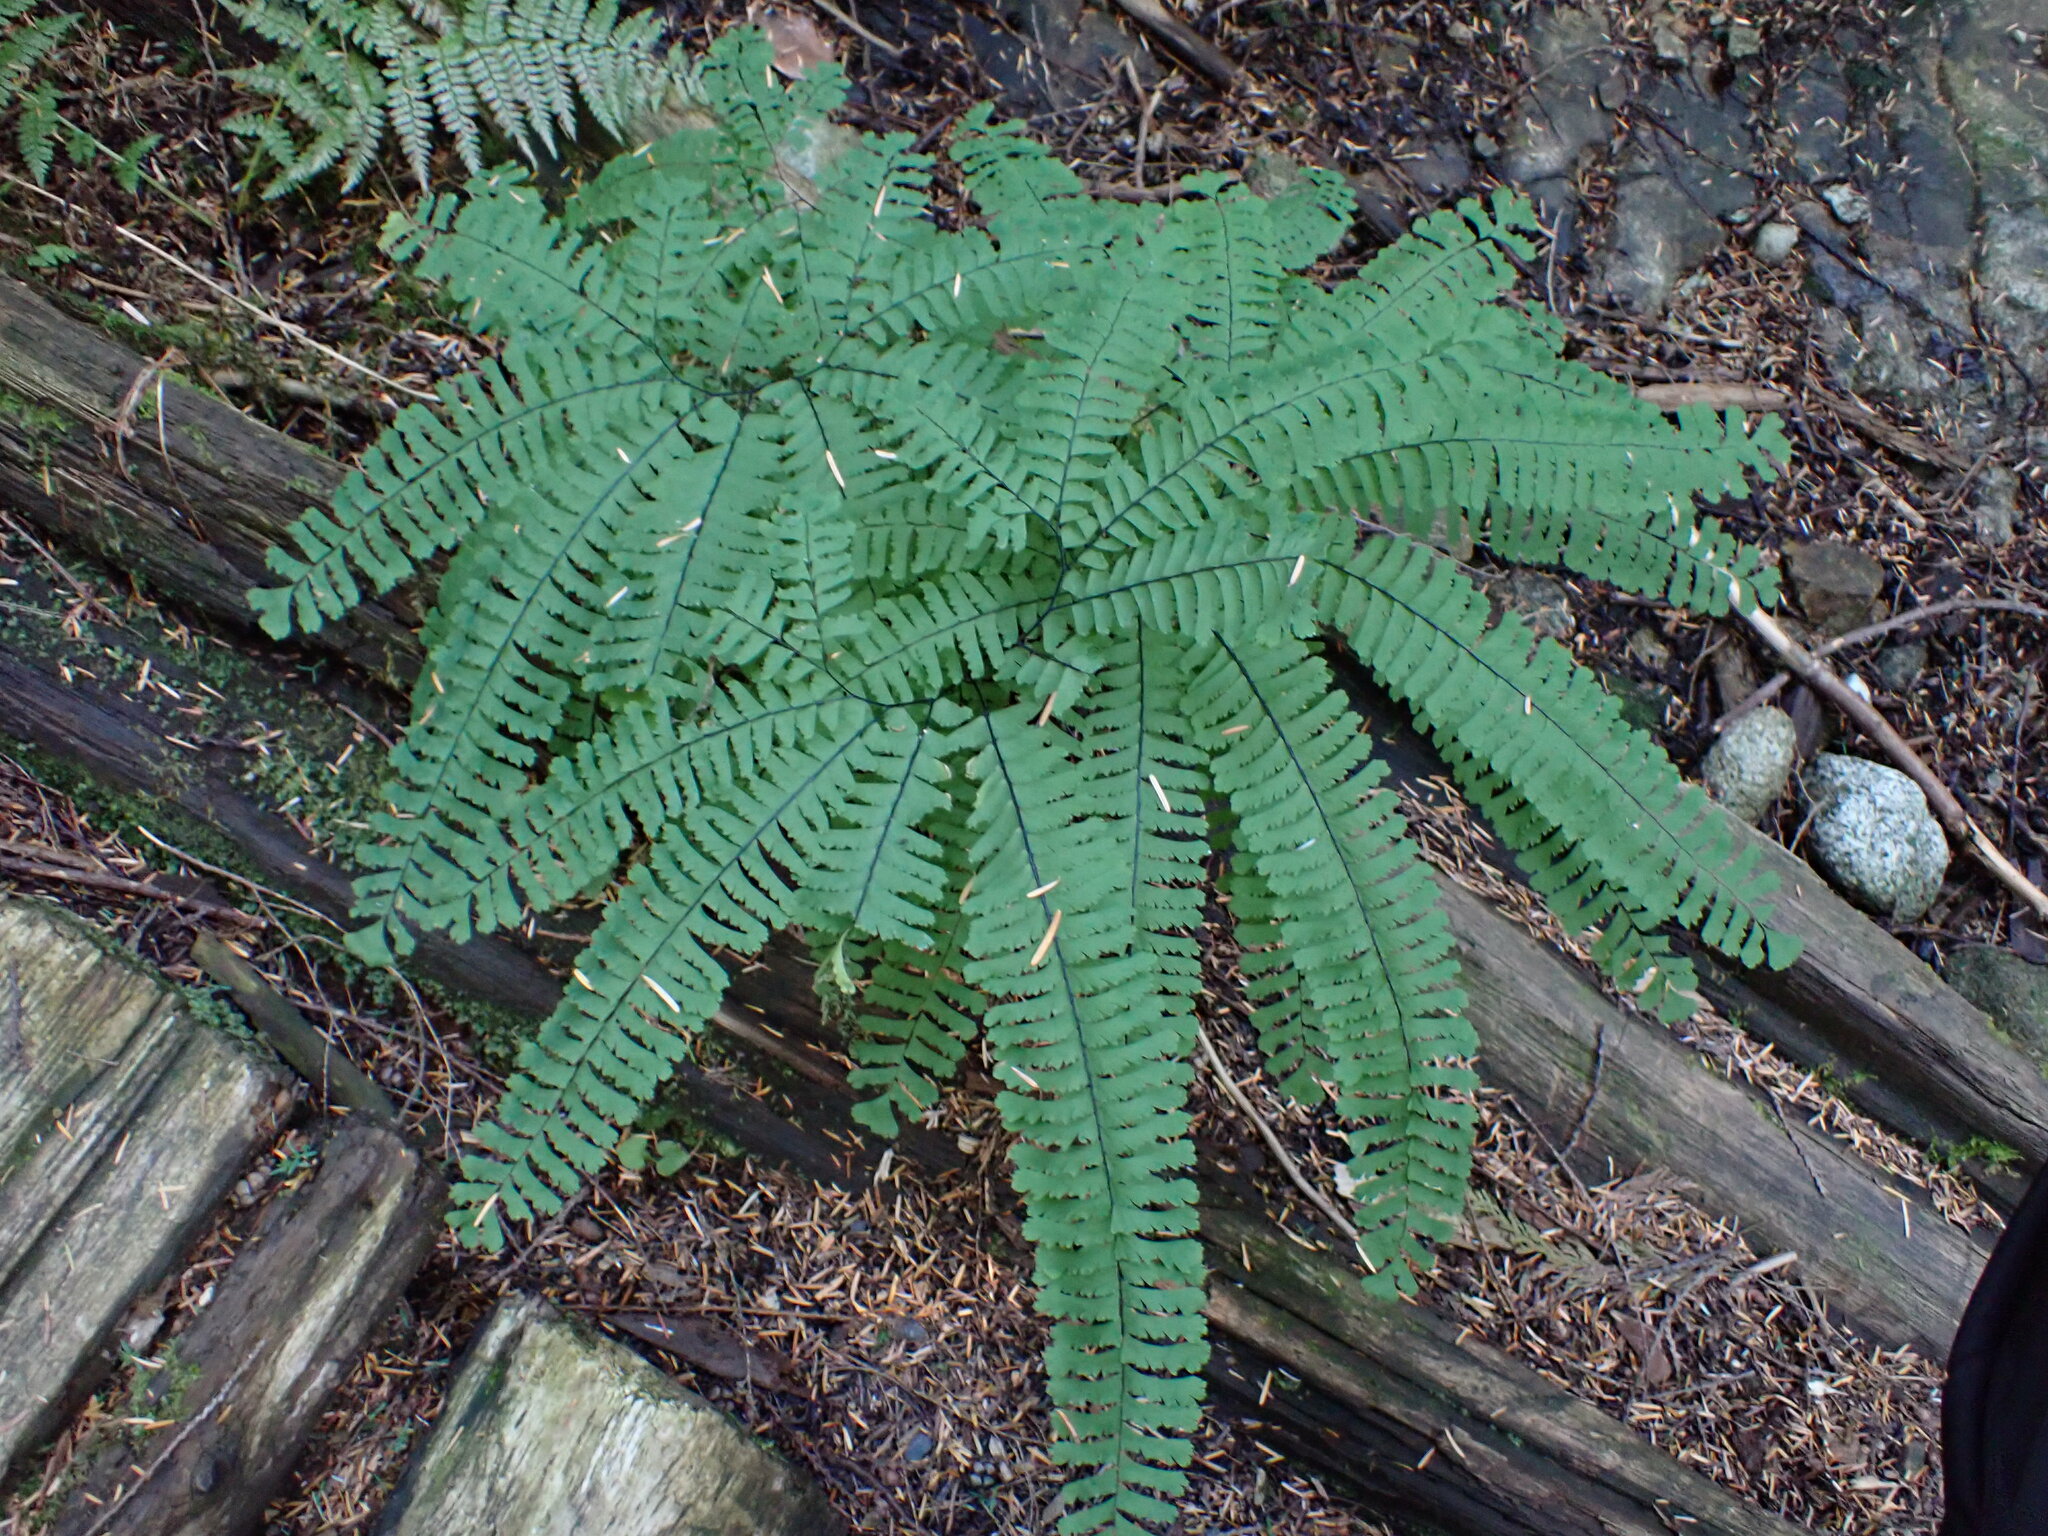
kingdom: Plantae
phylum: Tracheophyta
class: Polypodiopsida
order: Polypodiales
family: Pteridaceae
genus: Adiantum
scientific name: Adiantum aleuticum
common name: Aleutian maidenhair fern
